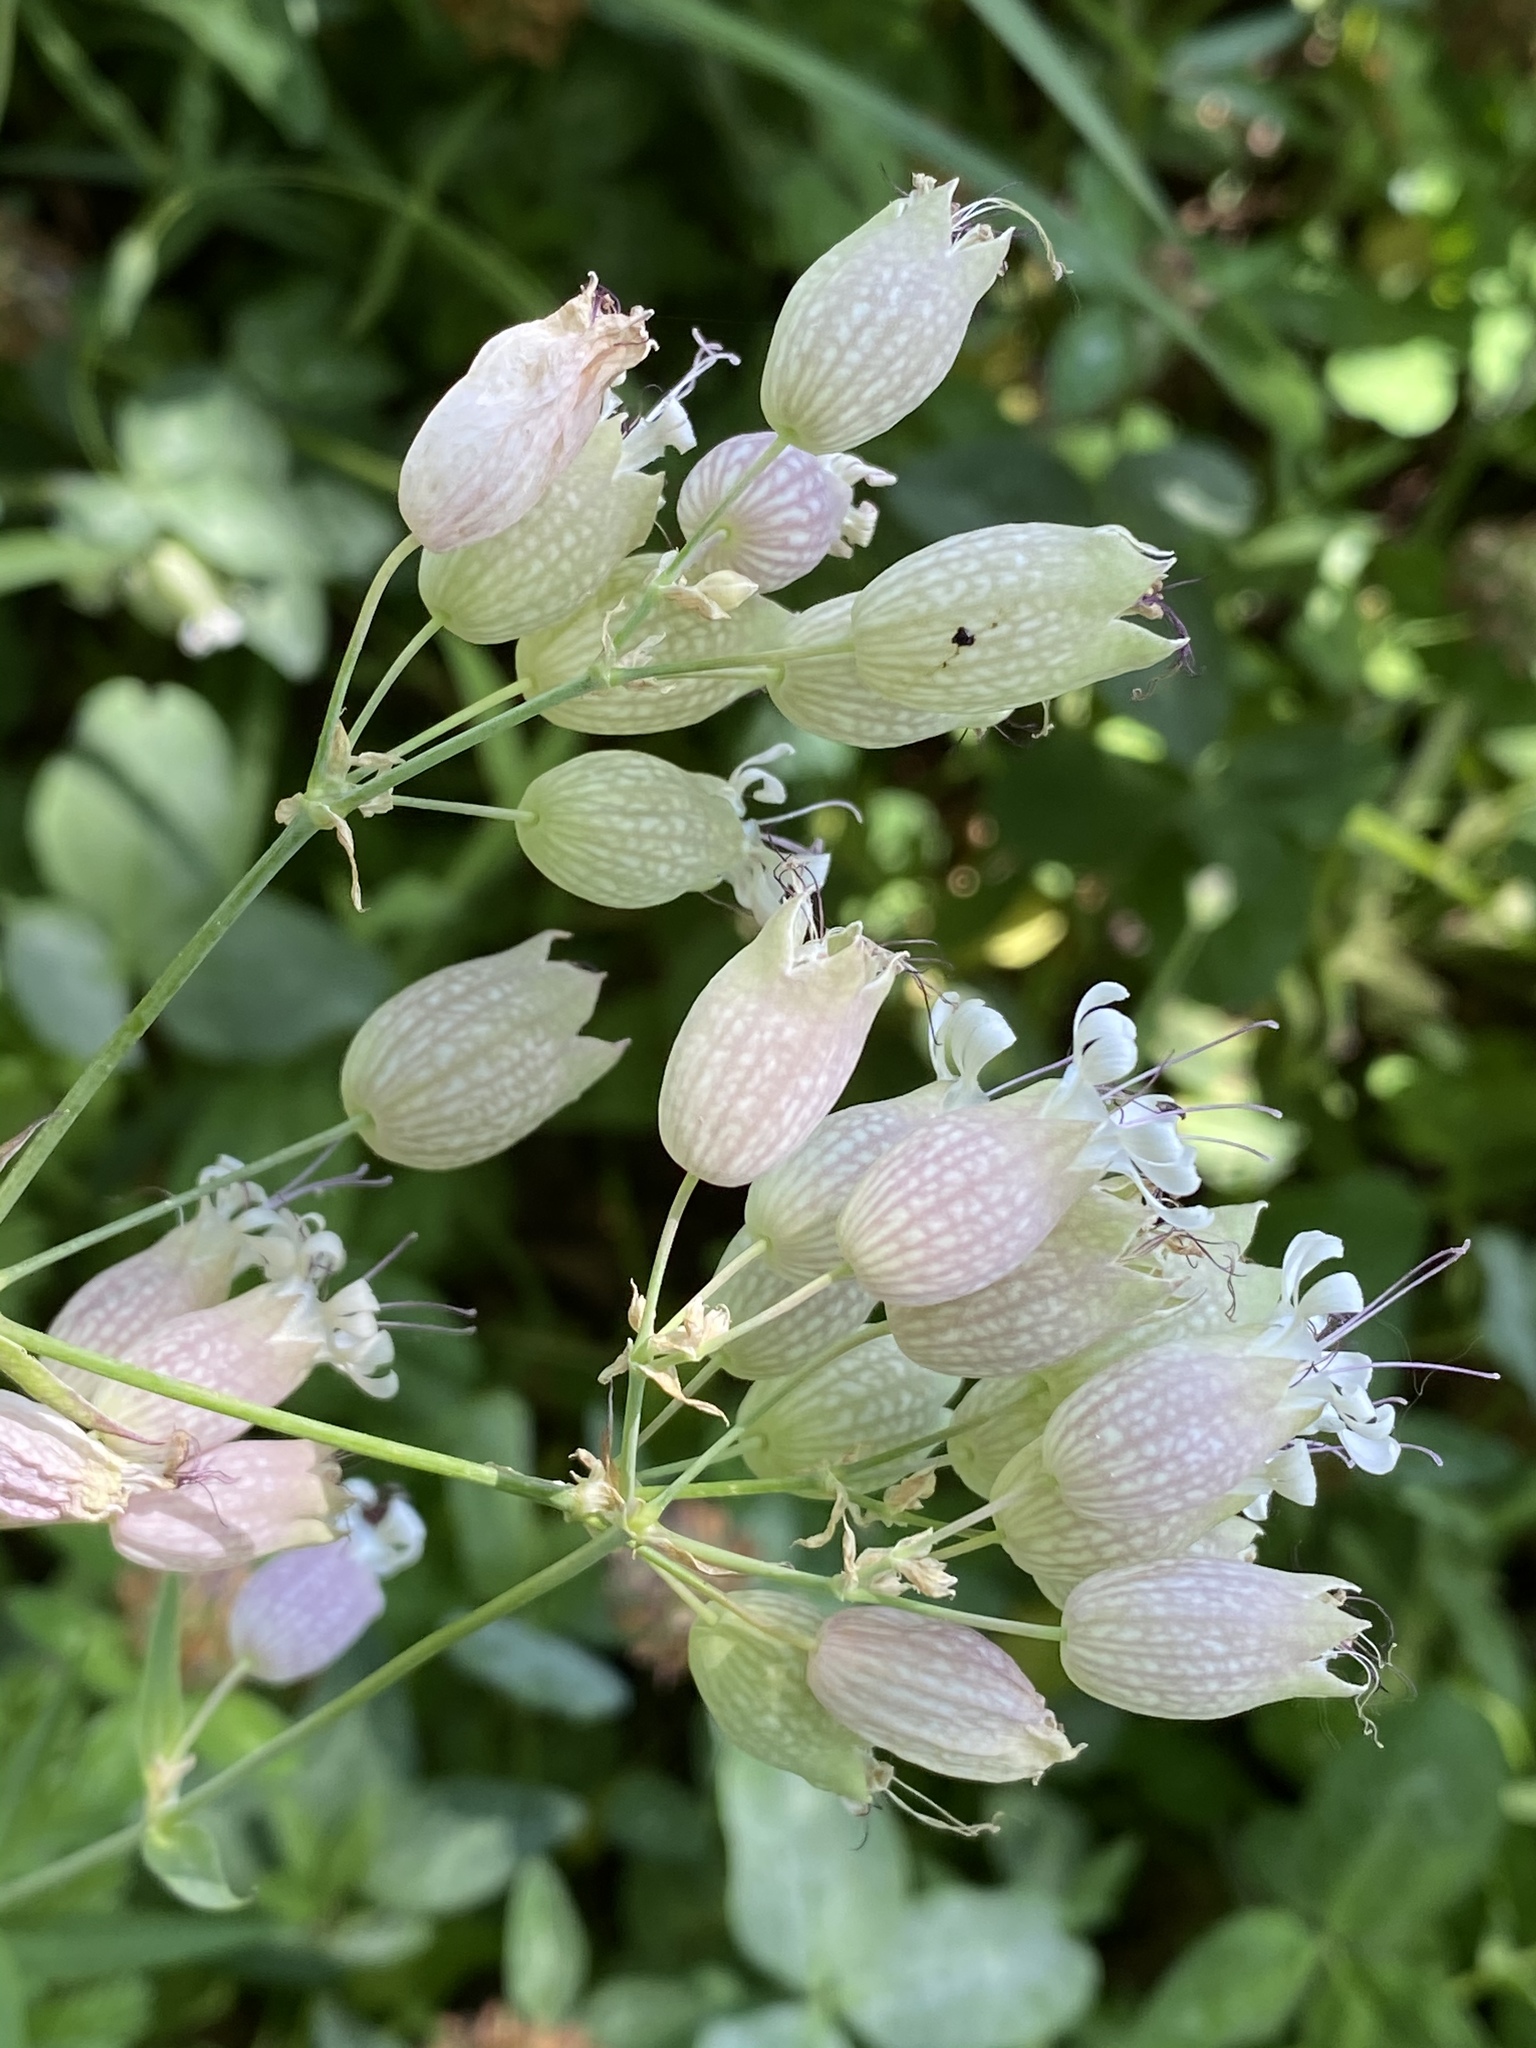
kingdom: Plantae
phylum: Tracheophyta
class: Magnoliopsida
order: Caryophyllales
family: Caryophyllaceae
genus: Silene
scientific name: Silene vulgaris
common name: Bladder campion
